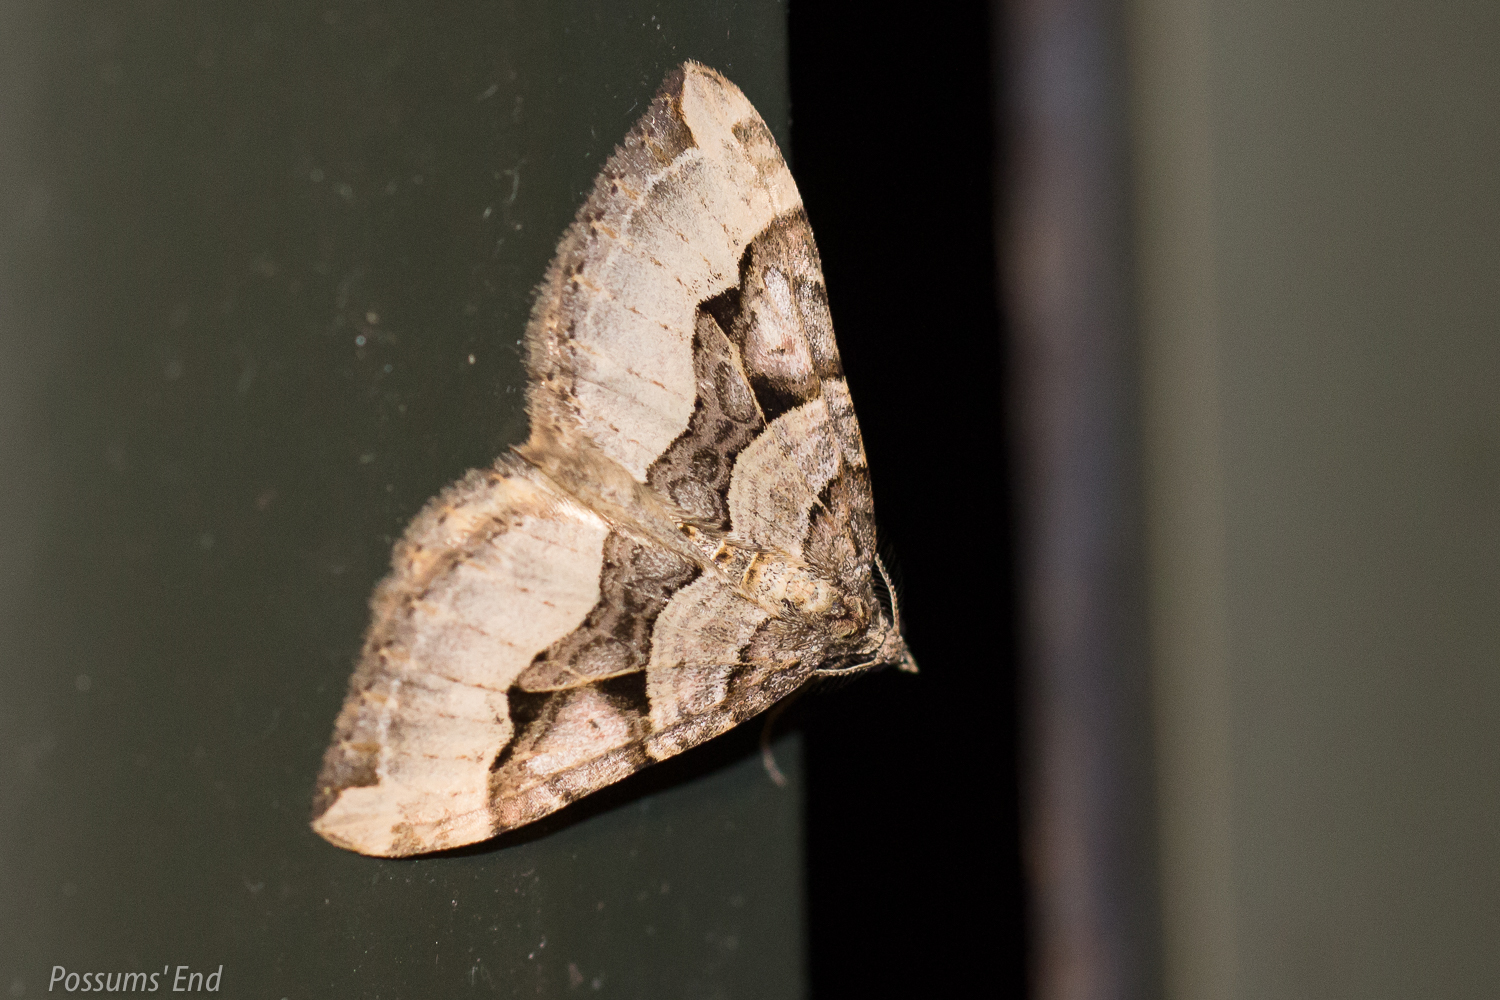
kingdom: Animalia
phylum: Arthropoda
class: Insecta
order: Lepidoptera
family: Geometridae
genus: Xanthorhoe
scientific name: Xanthorhoe semifissata
